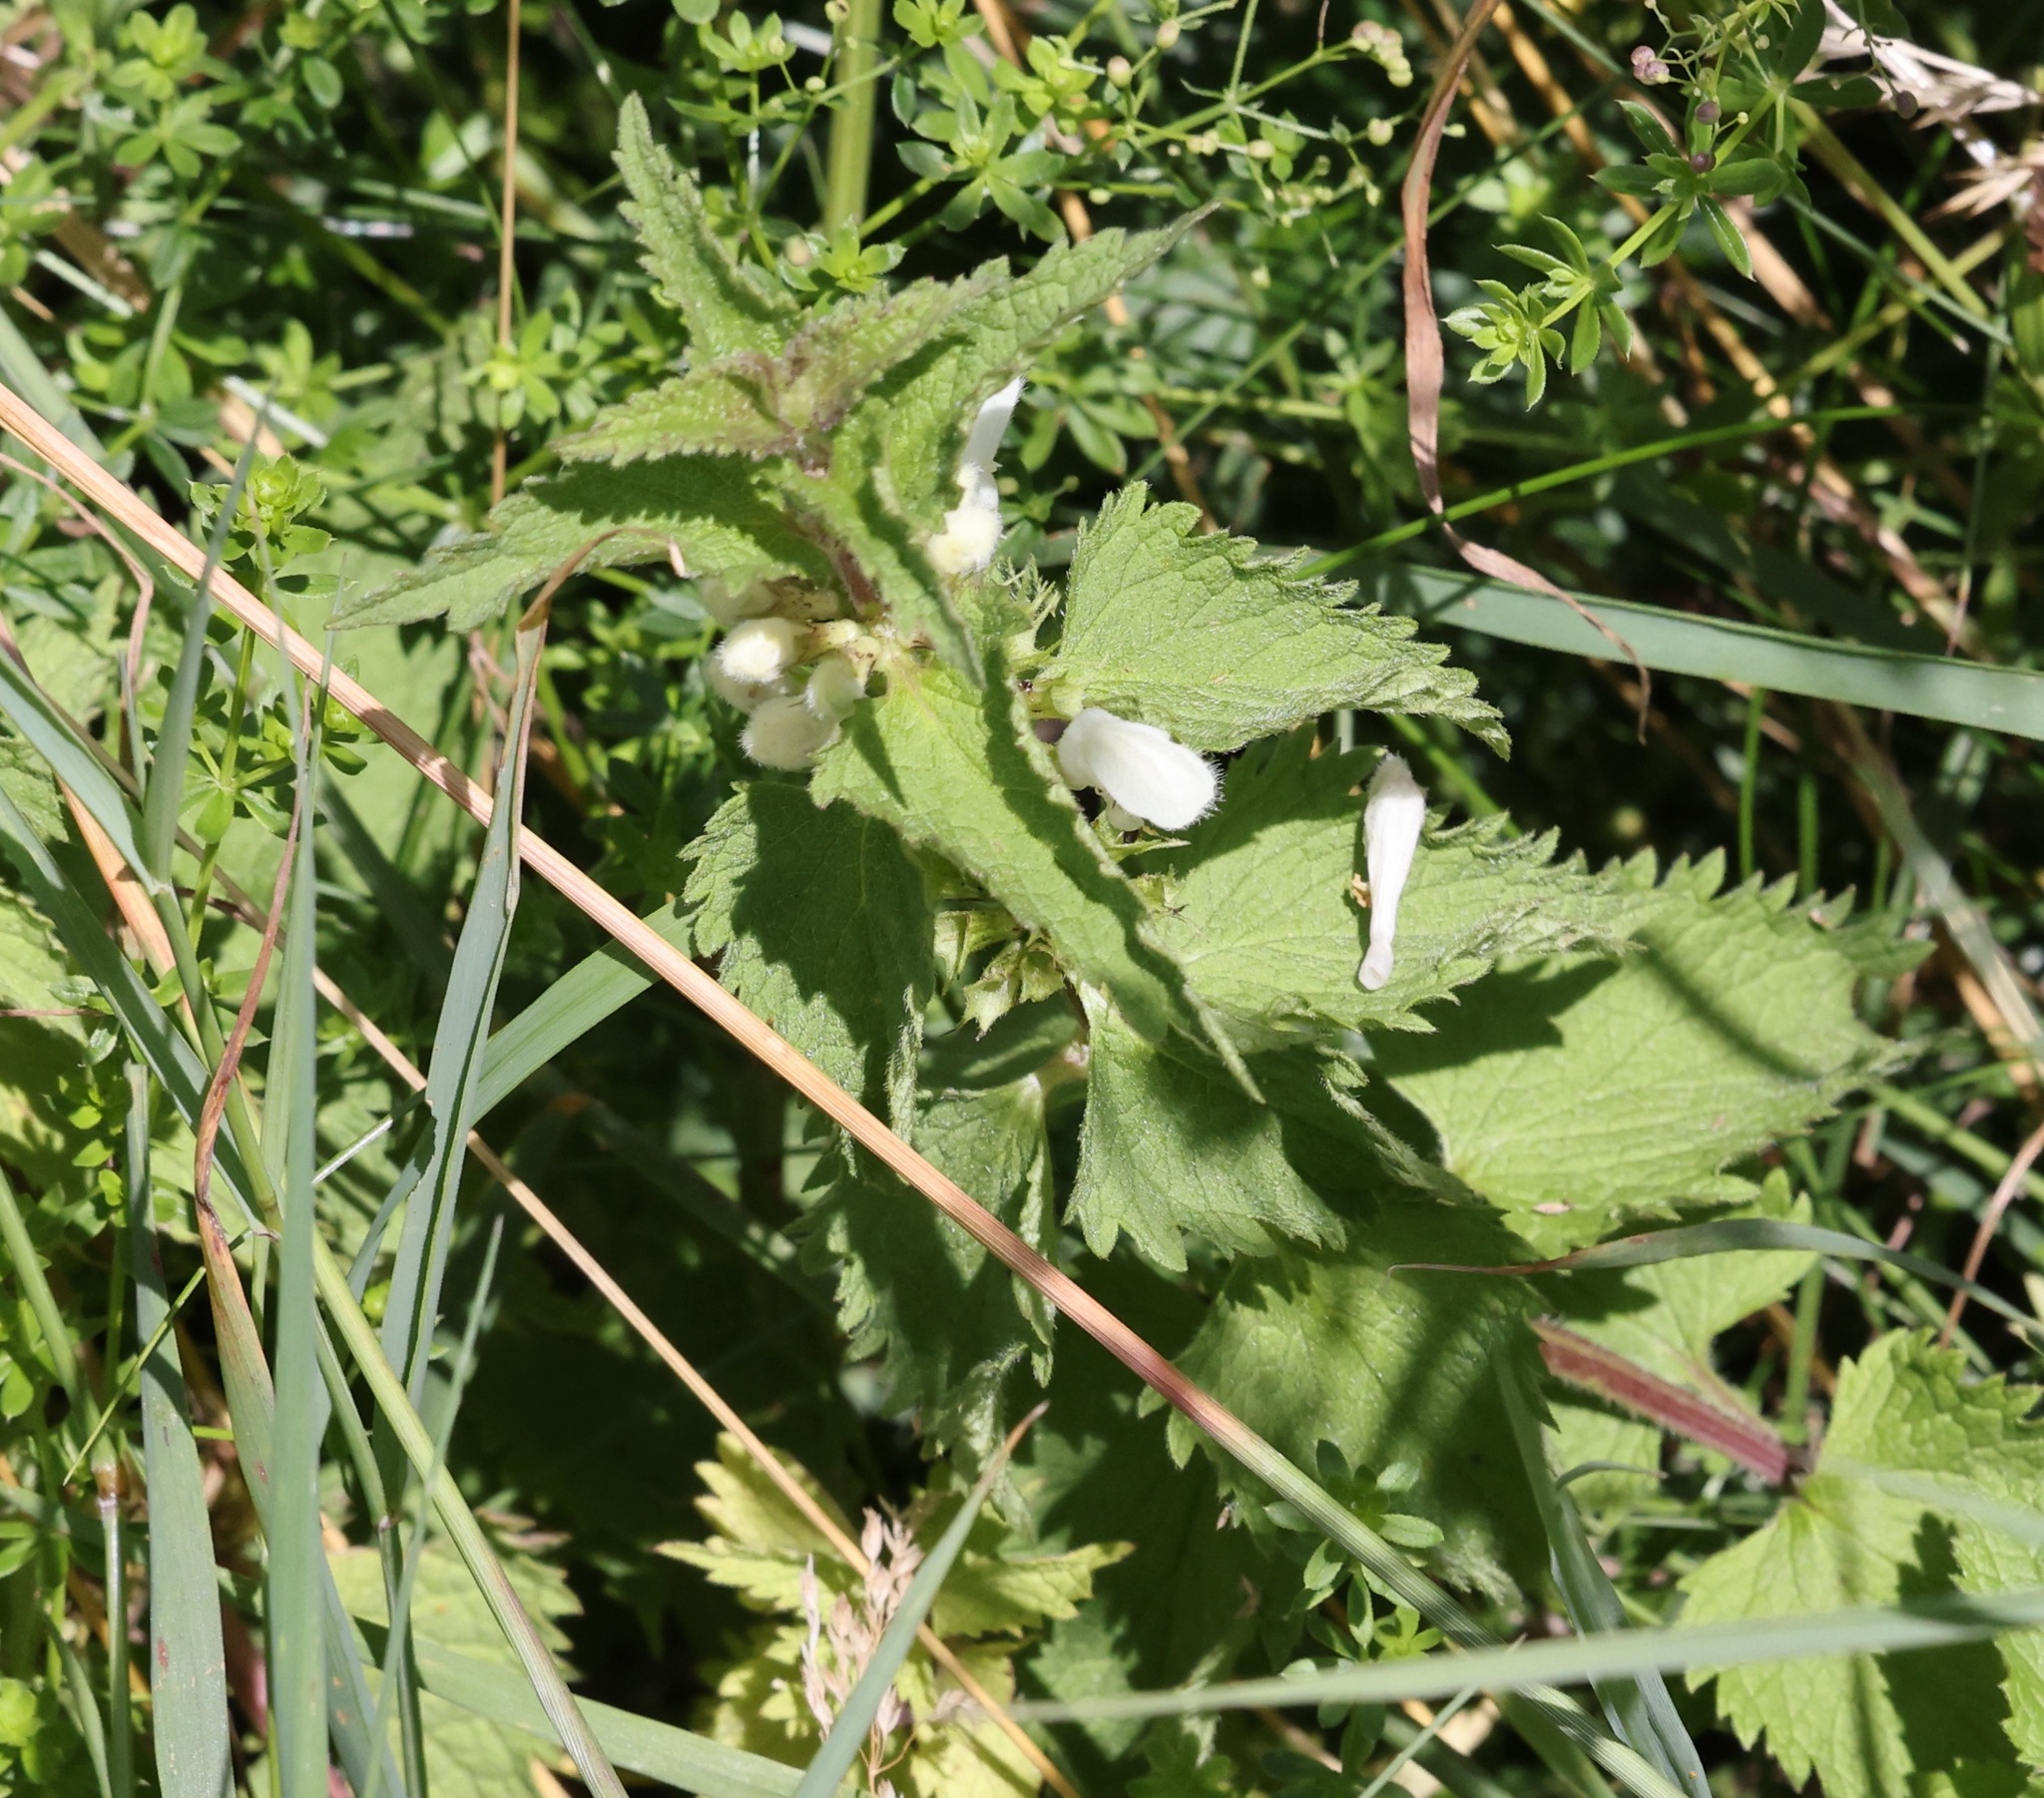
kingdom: Plantae
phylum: Tracheophyta
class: Magnoliopsida
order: Lamiales
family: Lamiaceae
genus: Lamium
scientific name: Lamium album
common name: White dead-nettle
